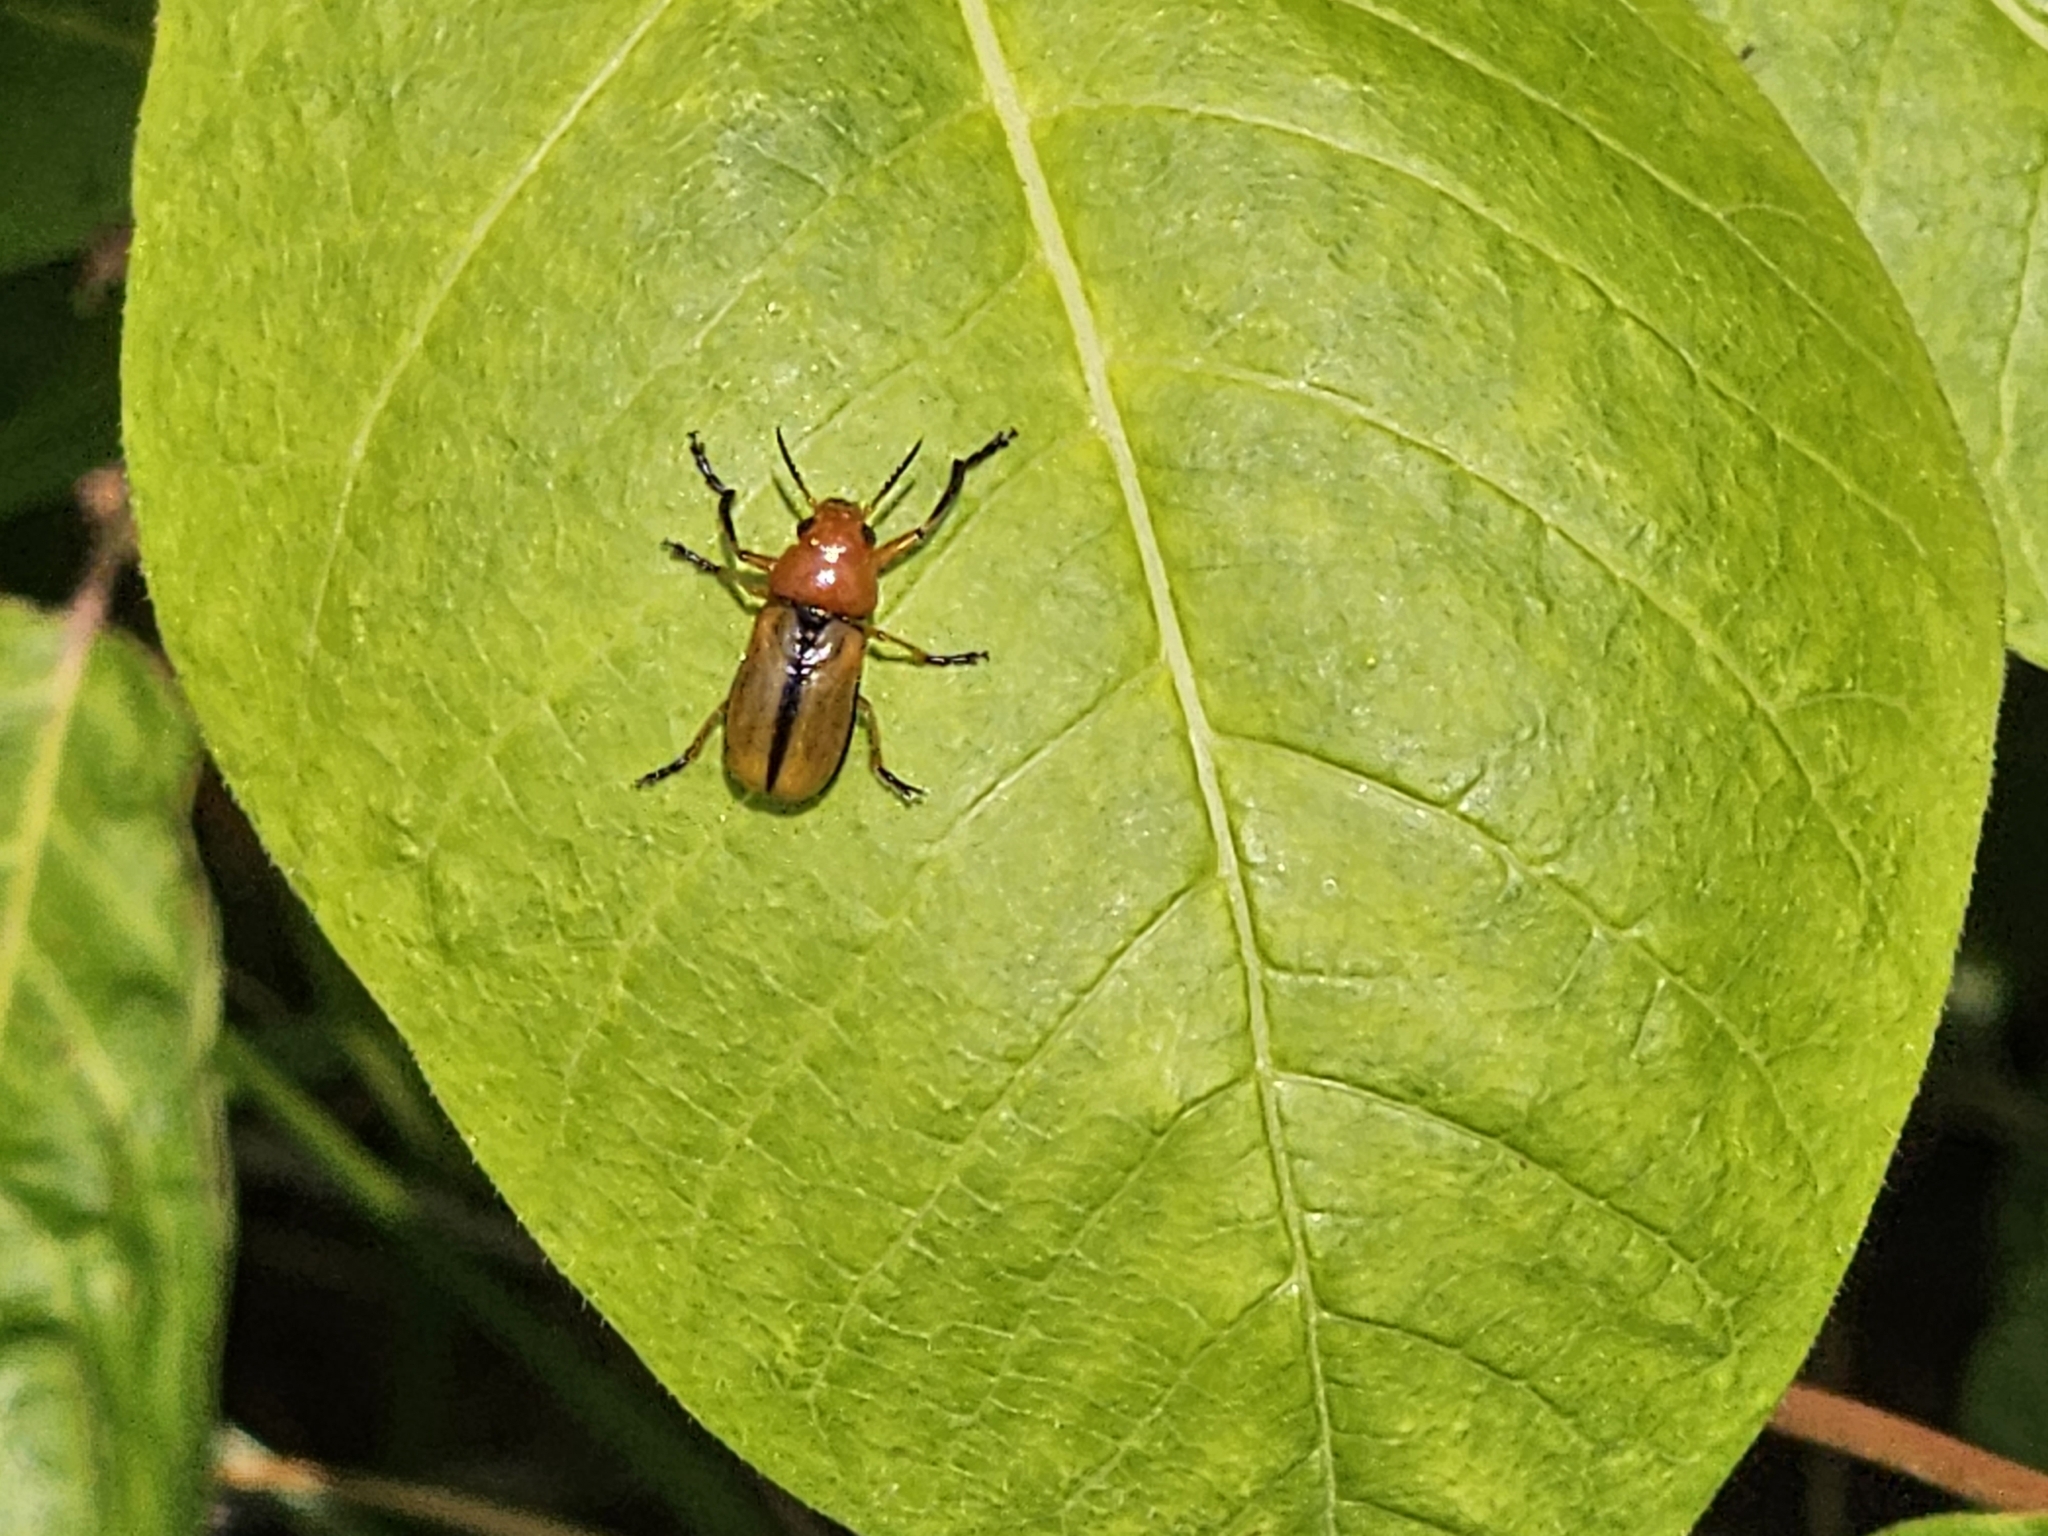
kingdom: Animalia
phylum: Arthropoda
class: Insecta
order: Coleoptera
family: Chrysomelidae
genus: Anomoea
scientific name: Anomoea laticlavia
